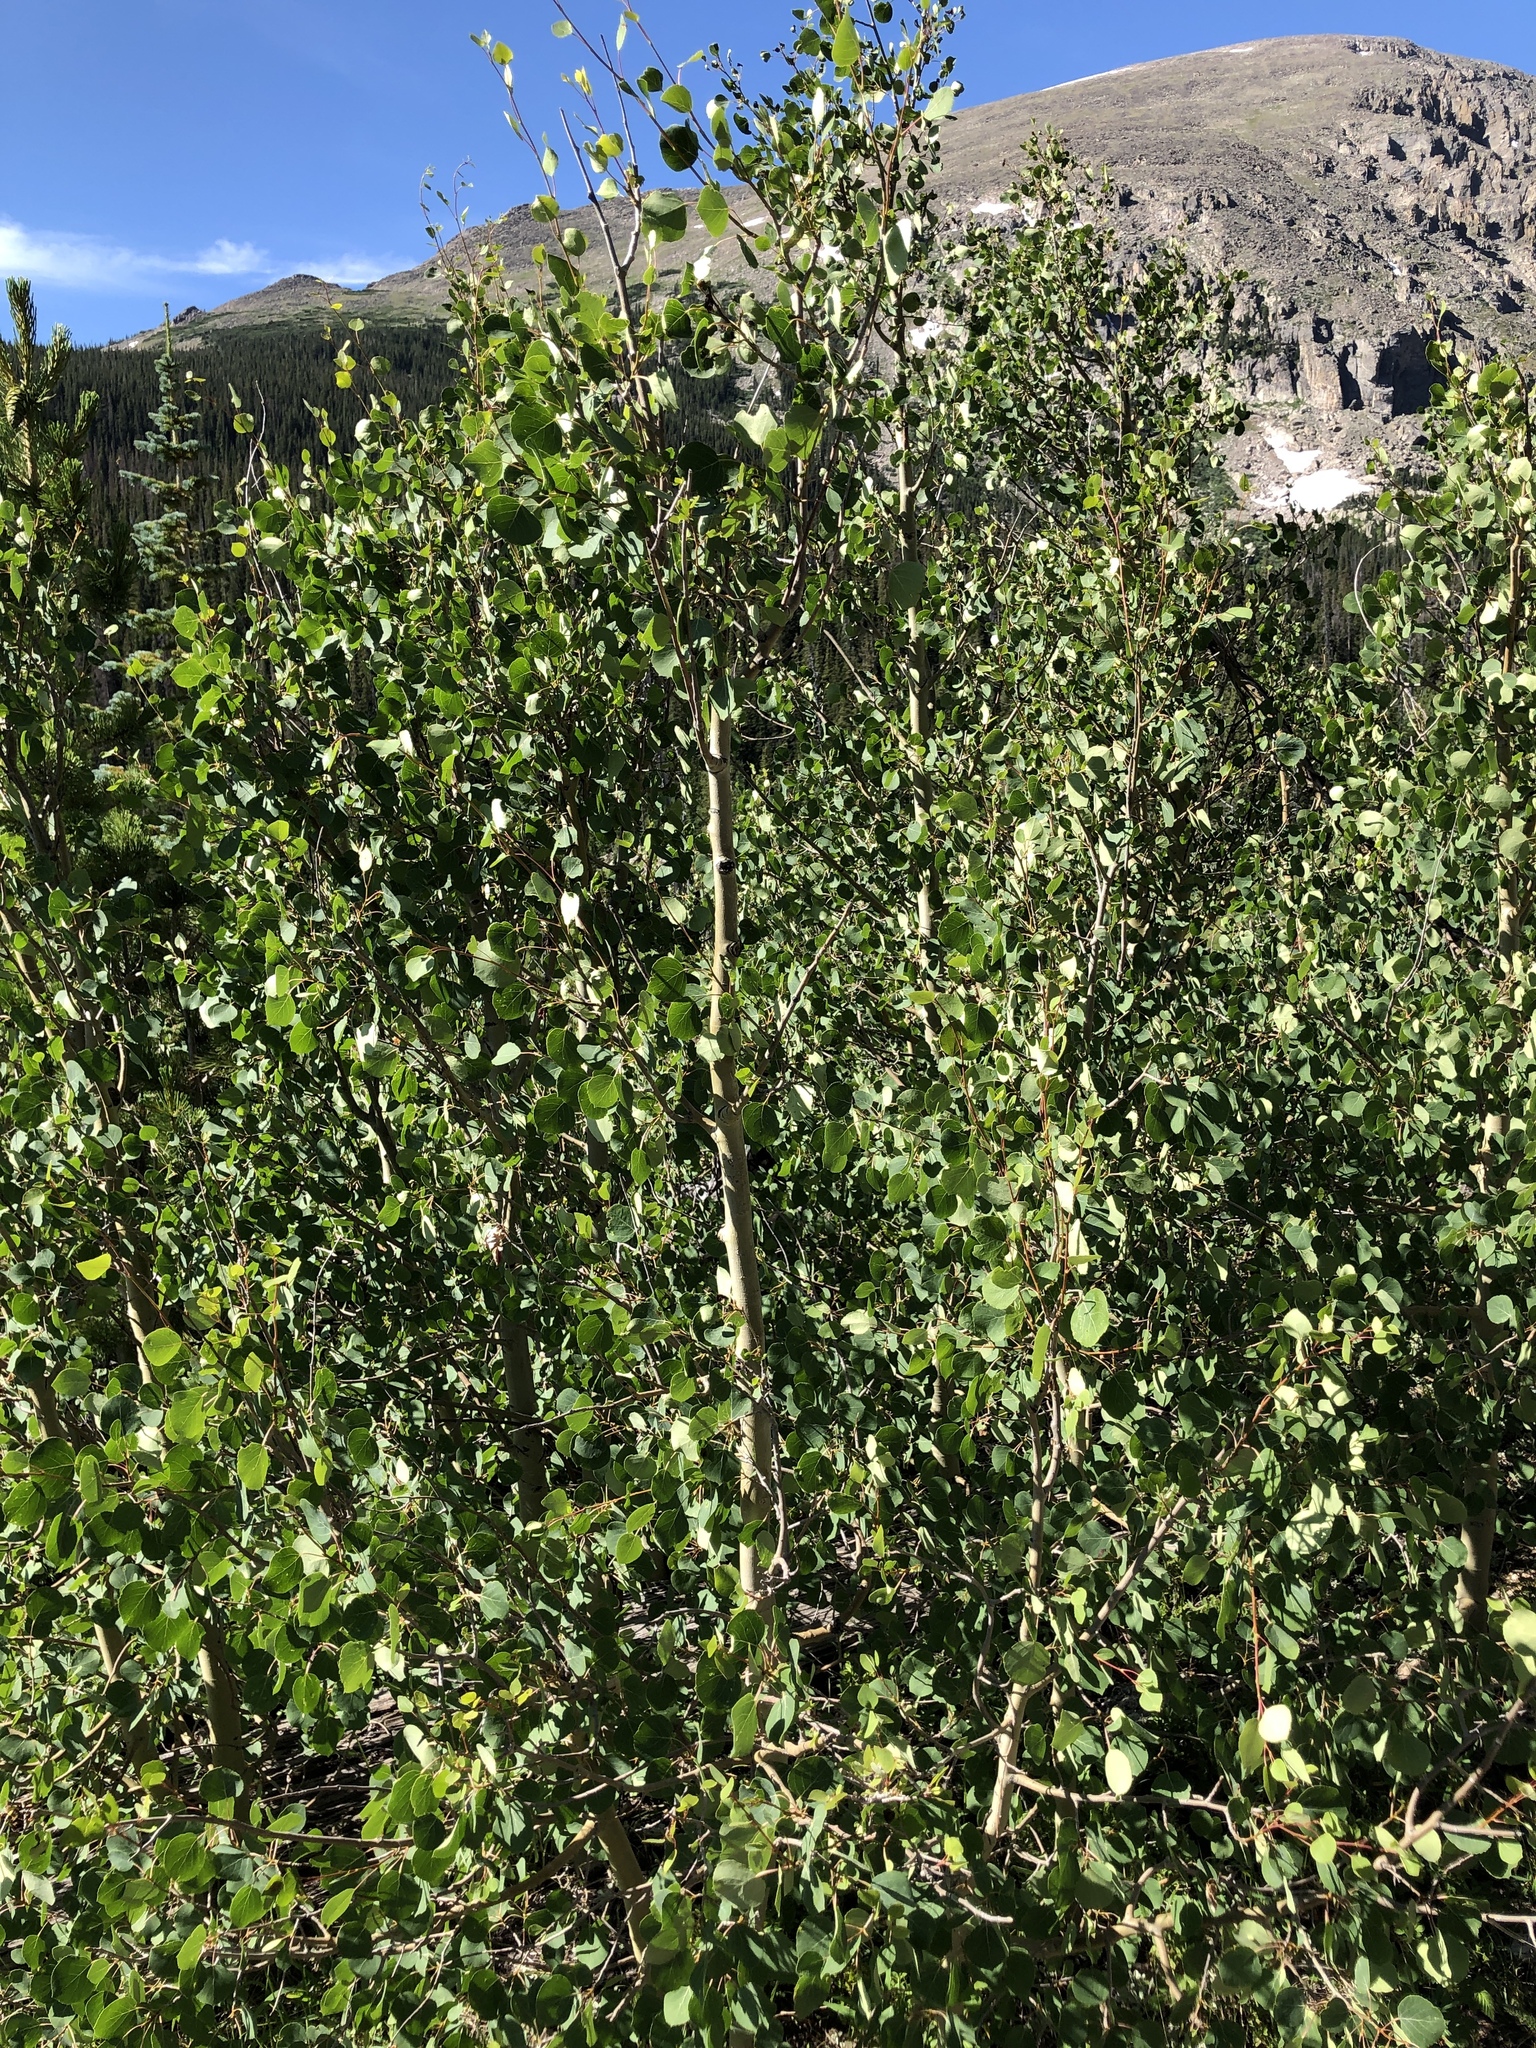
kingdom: Plantae
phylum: Tracheophyta
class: Magnoliopsida
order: Malpighiales
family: Salicaceae
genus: Populus
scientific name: Populus tremuloides
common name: Quaking aspen
